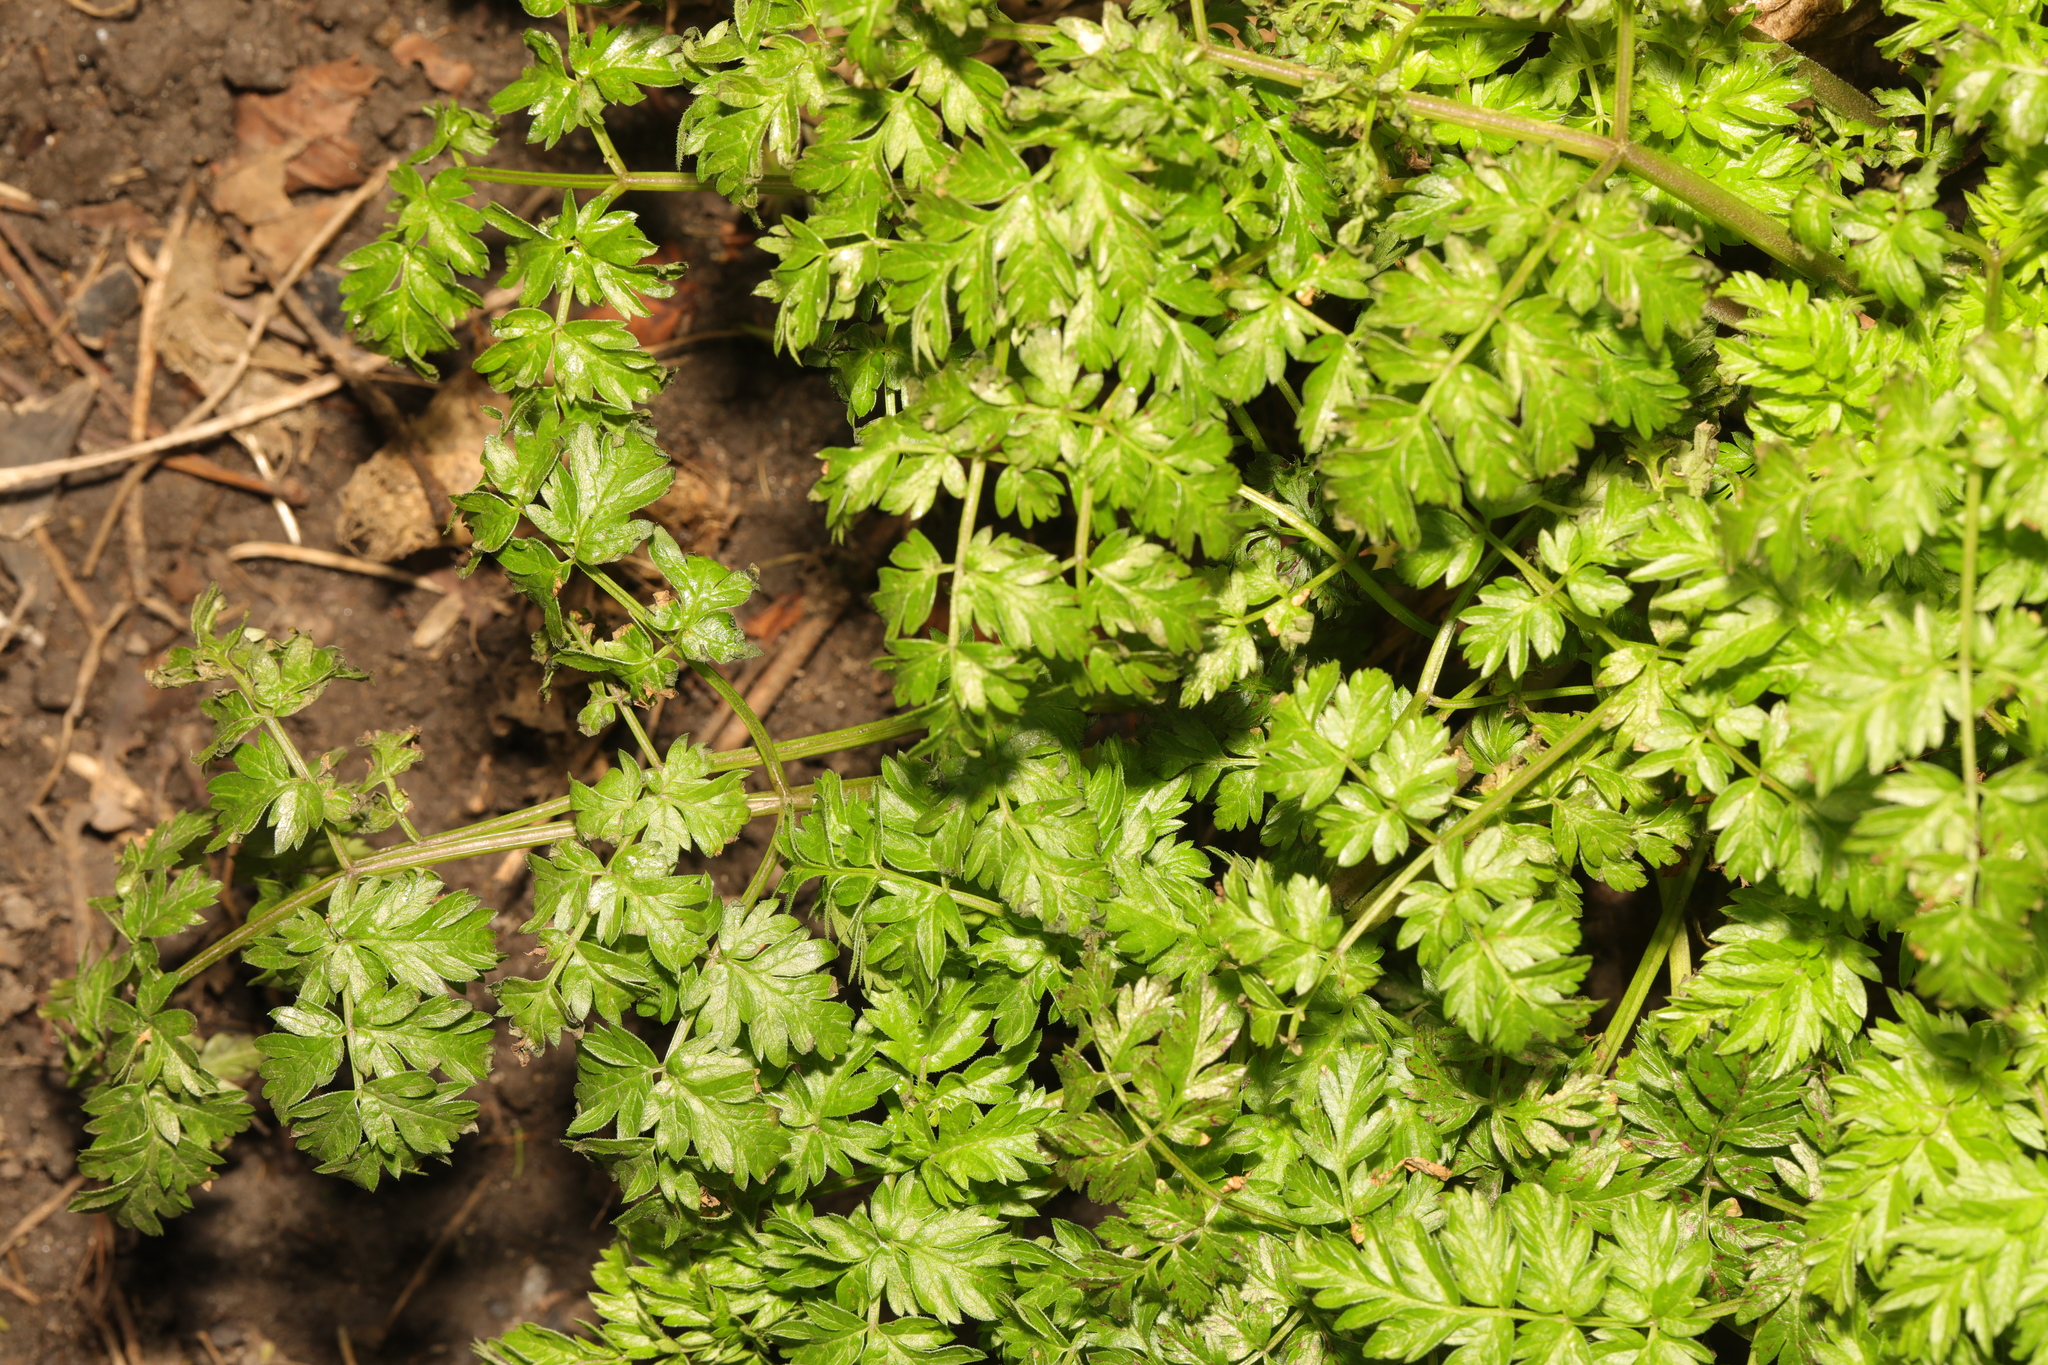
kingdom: Plantae
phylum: Tracheophyta
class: Magnoliopsida
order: Apiales
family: Apiaceae
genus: Anthriscus
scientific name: Anthriscus sylvestris
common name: Cow parsley
